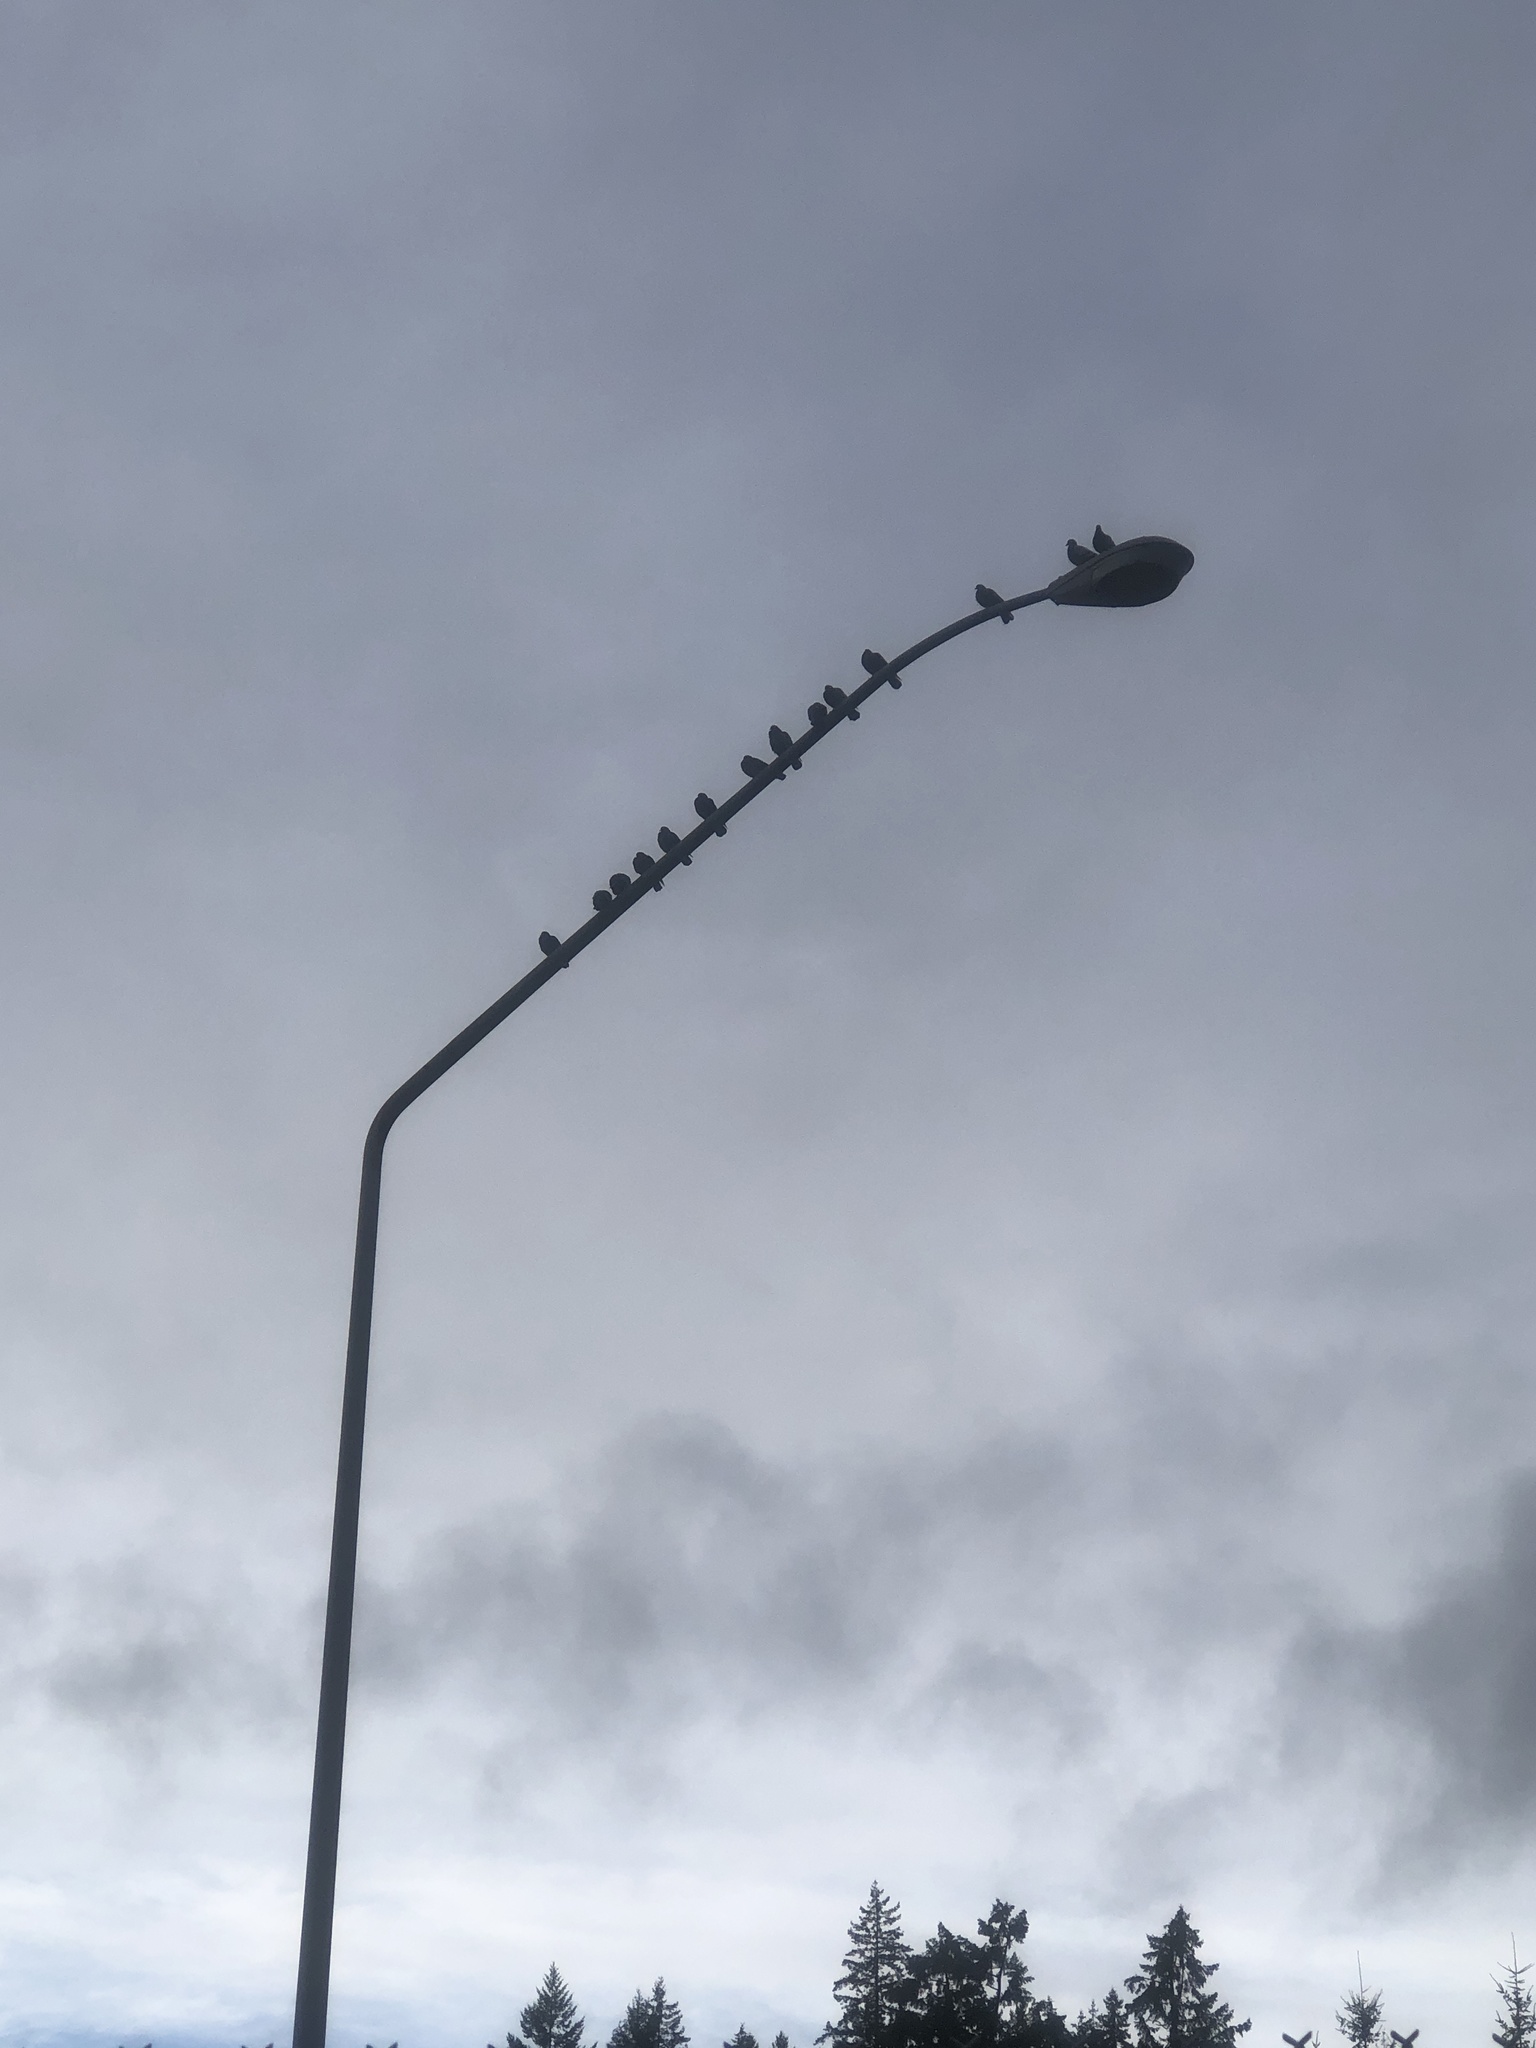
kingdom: Animalia
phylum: Chordata
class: Aves
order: Columbiformes
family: Columbidae
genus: Columba
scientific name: Columba livia
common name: Rock pigeon
